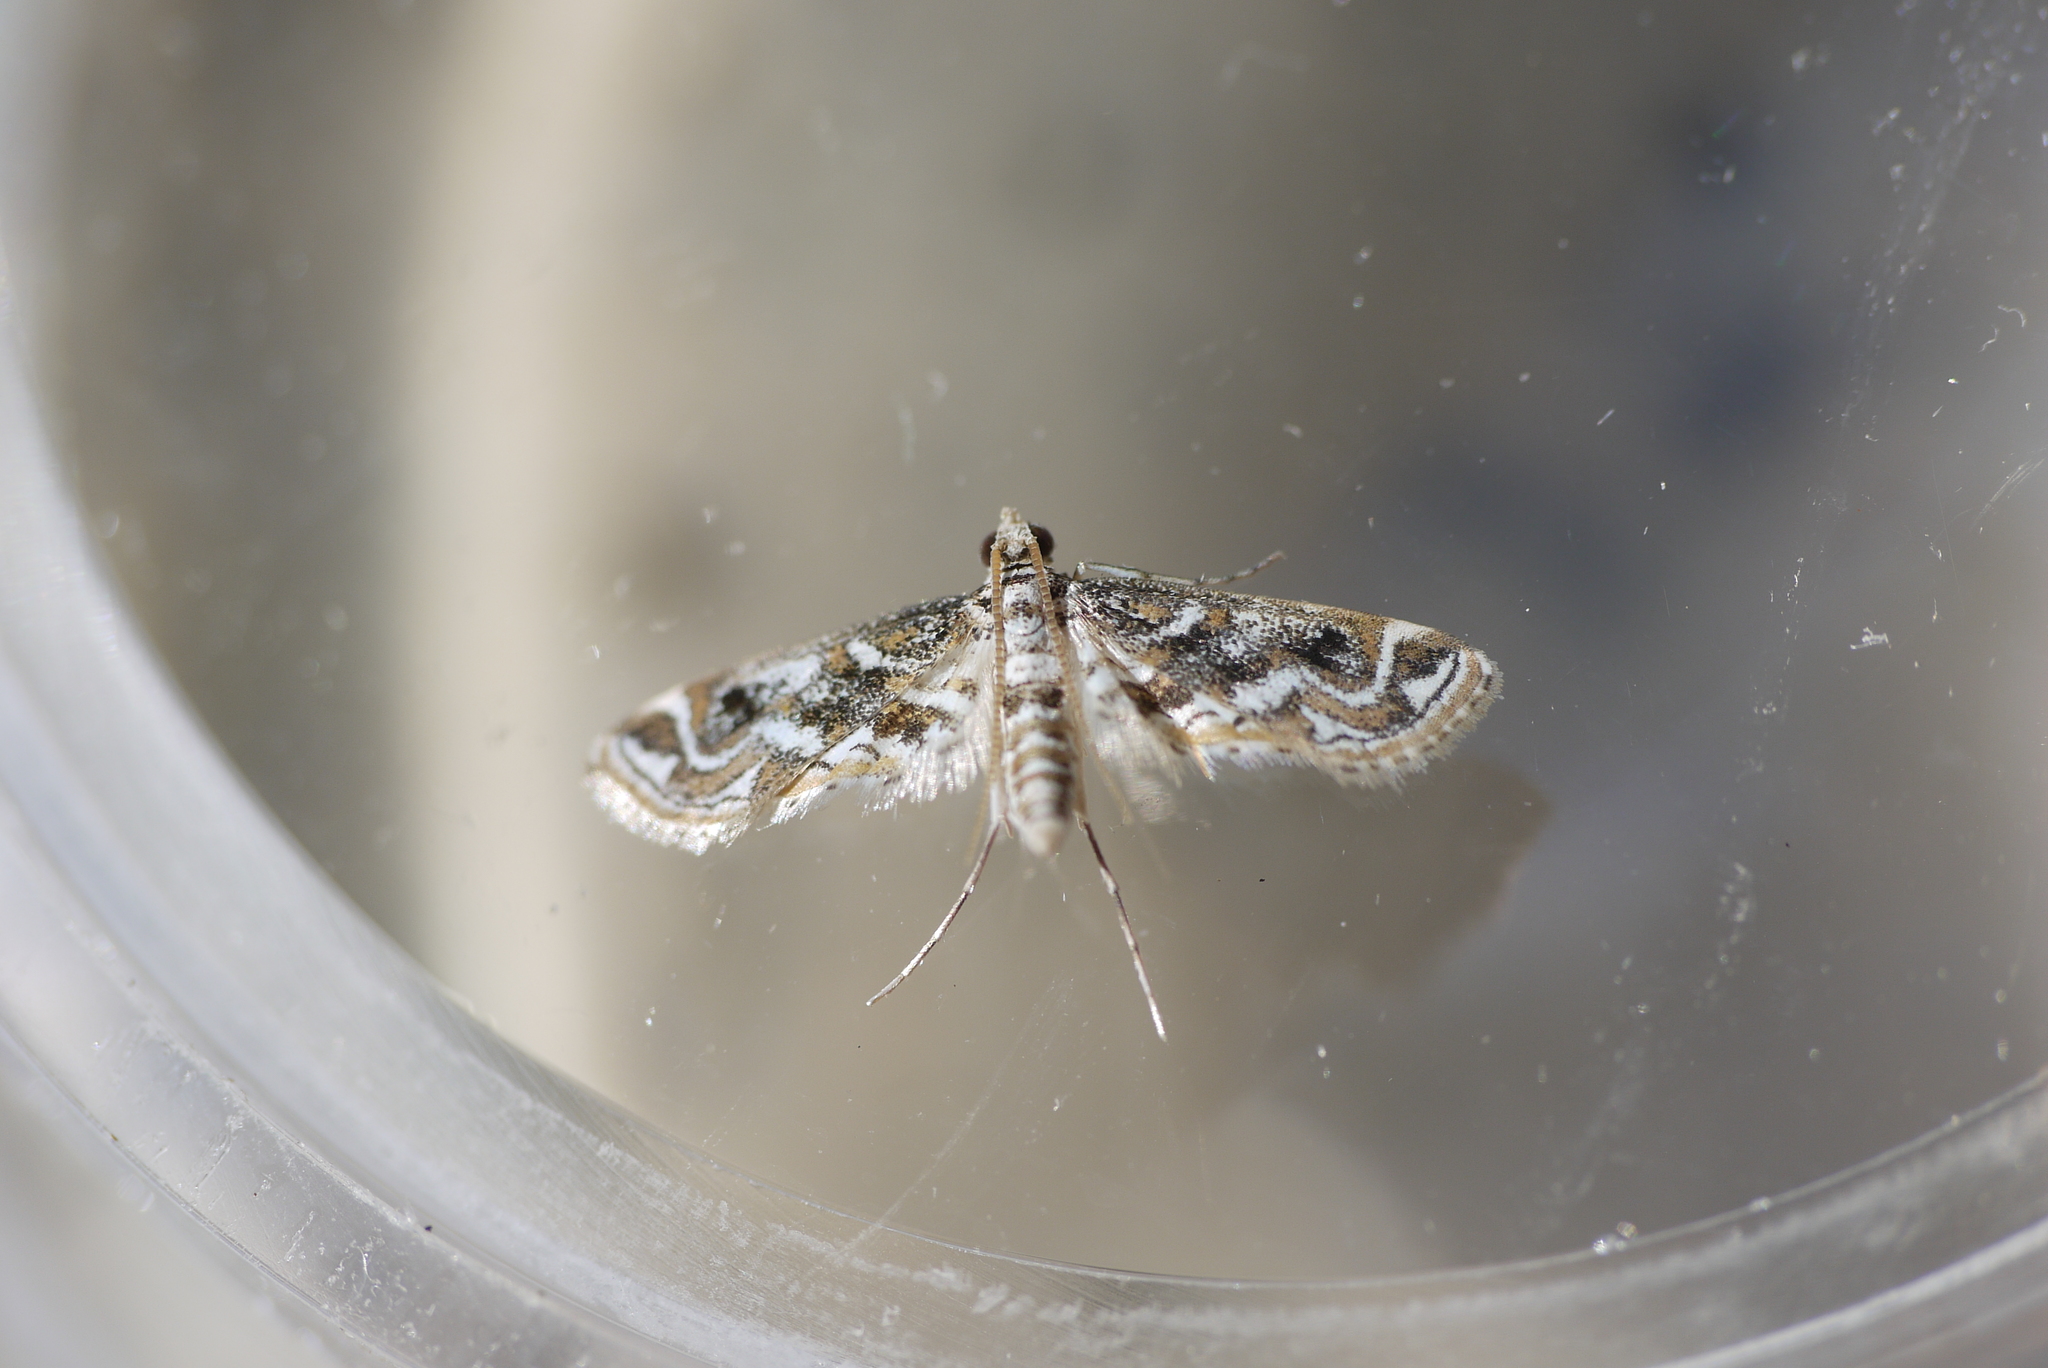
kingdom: Animalia
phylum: Arthropoda
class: Insecta
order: Lepidoptera
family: Crambidae
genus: Parapoynx
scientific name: Parapoynx diminutalis
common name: Hydrilla leafcutter
